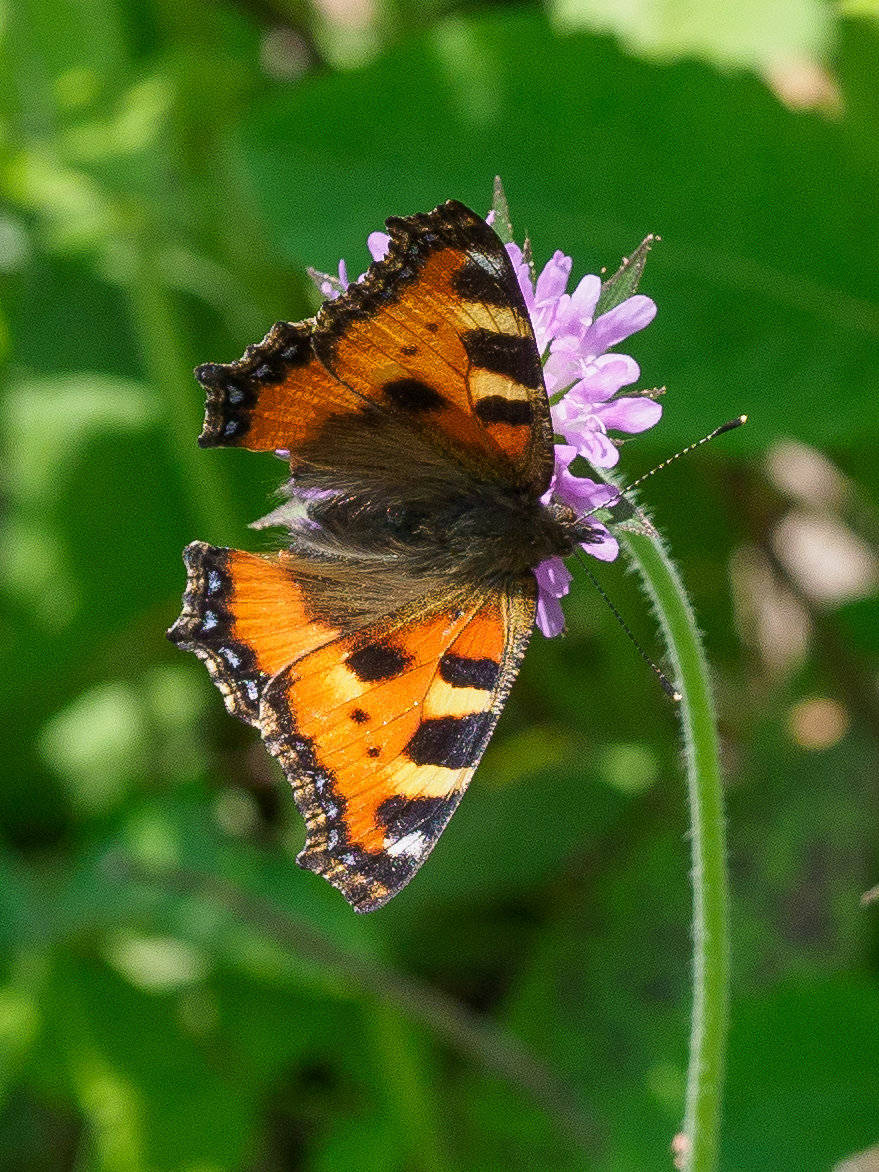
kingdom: Animalia
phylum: Arthropoda
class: Insecta
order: Lepidoptera
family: Nymphalidae
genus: Aglais
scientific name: Aglais urticae
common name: Small tortoiseshell
